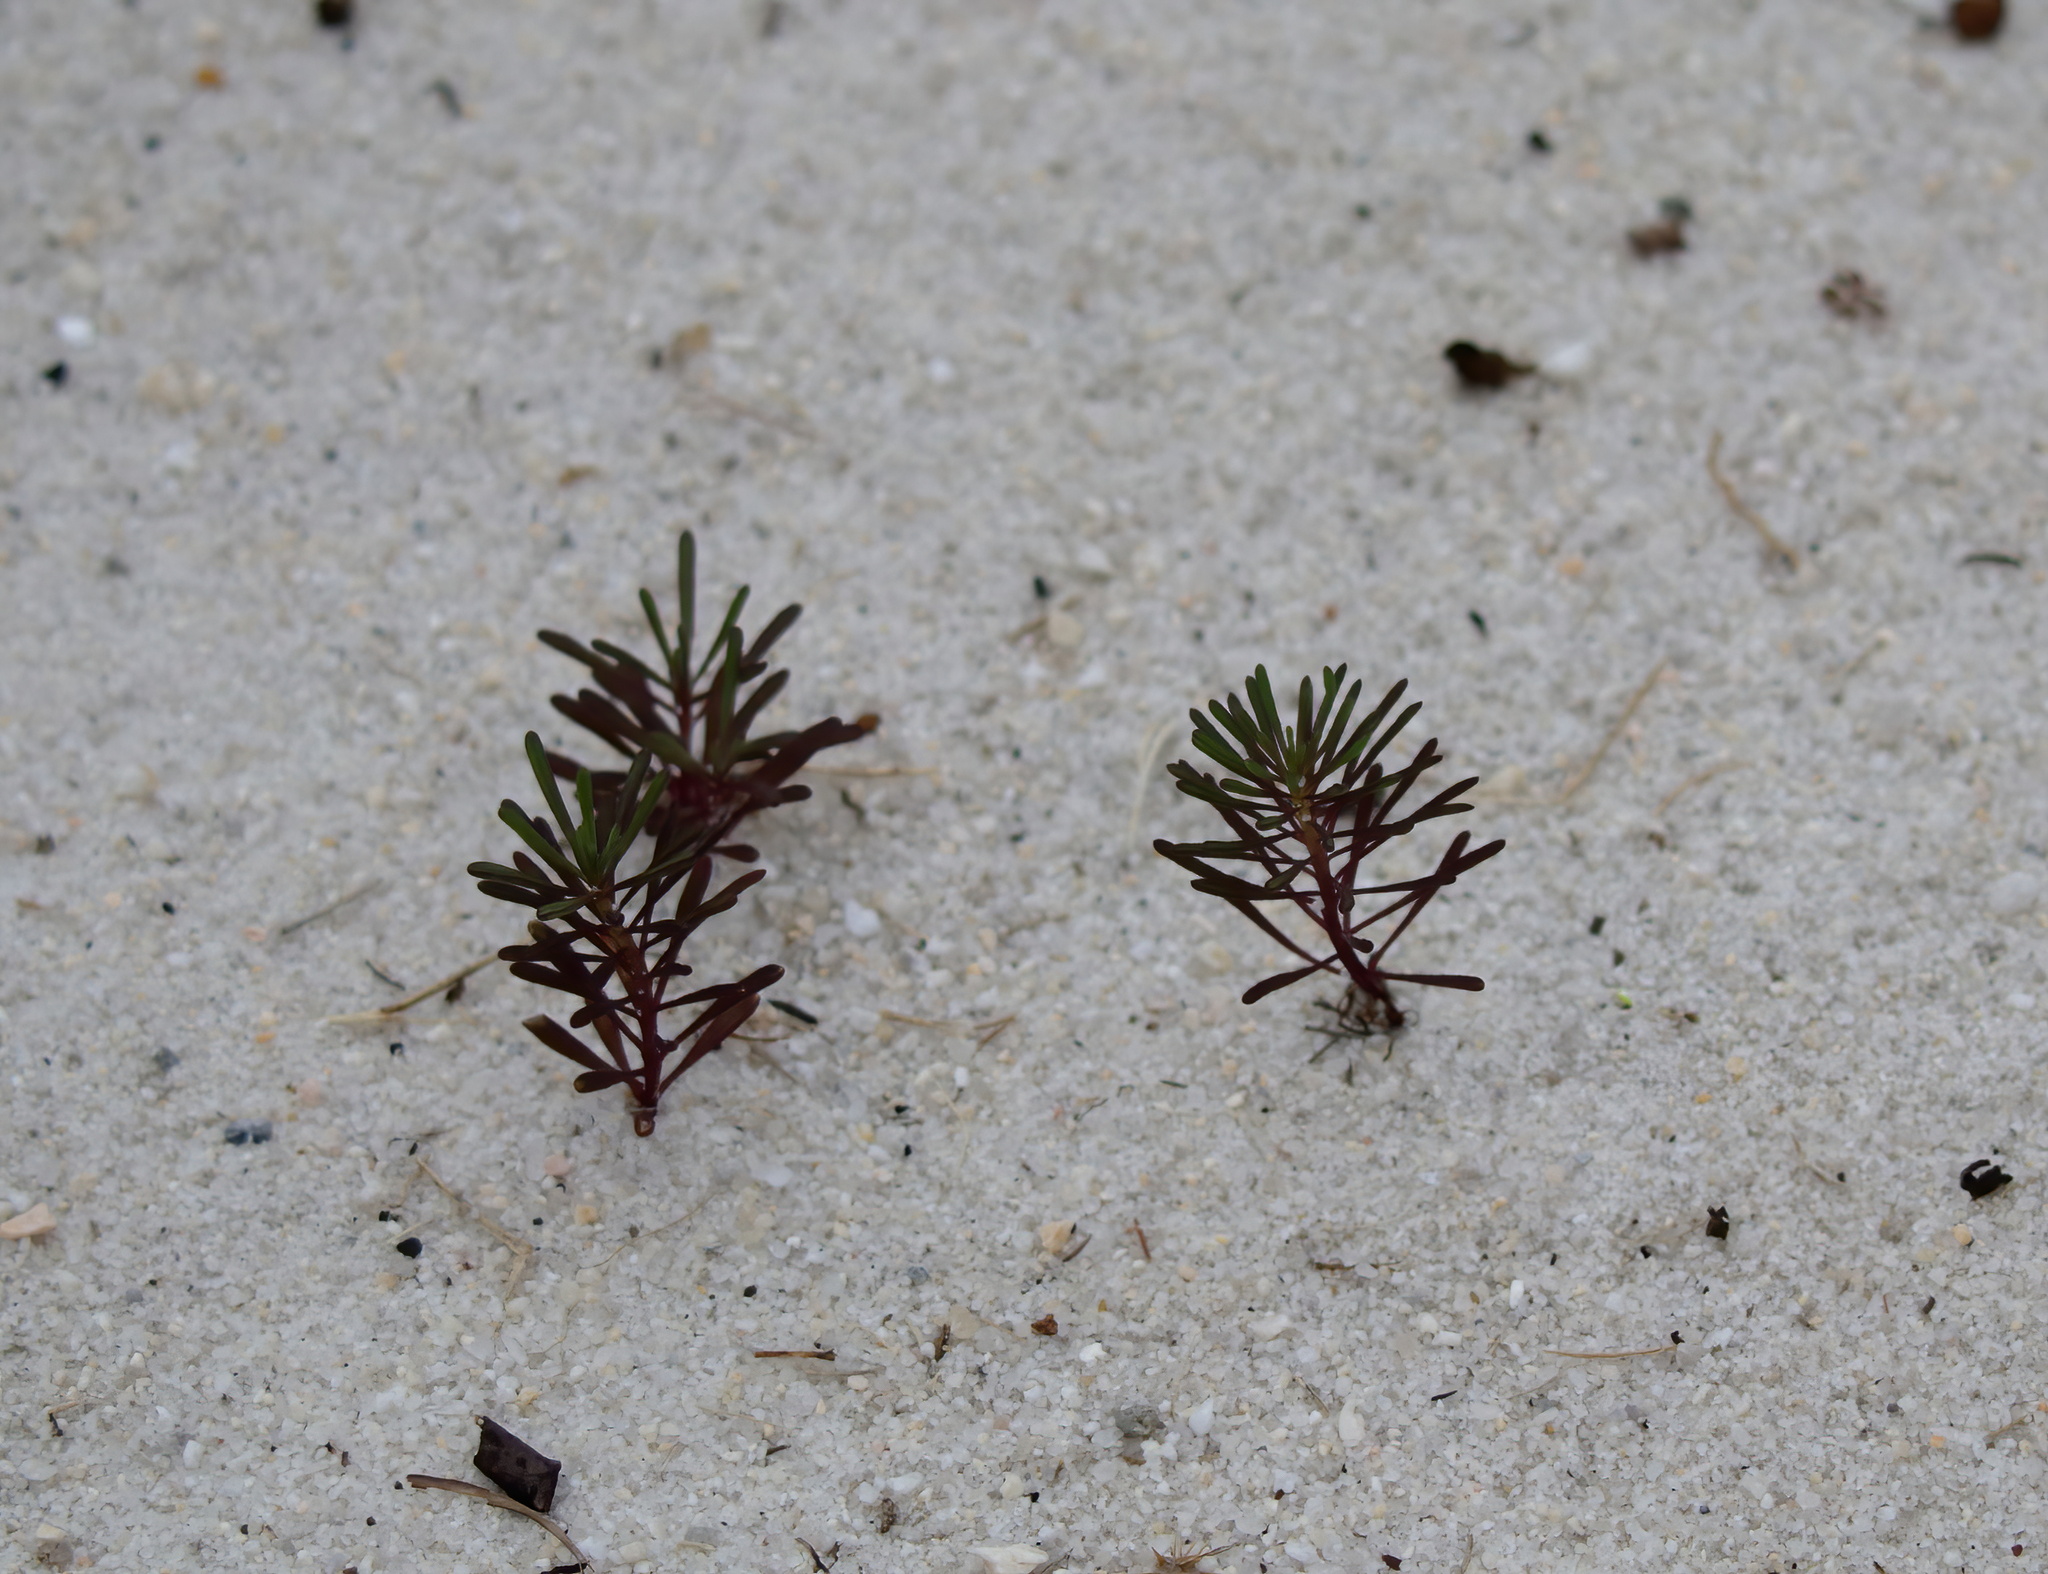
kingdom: Plantae
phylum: Tracheophyta
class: Magnoliopsida
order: Asterales
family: Asteraceae
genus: Balduina
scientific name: Balduina angustifolia
